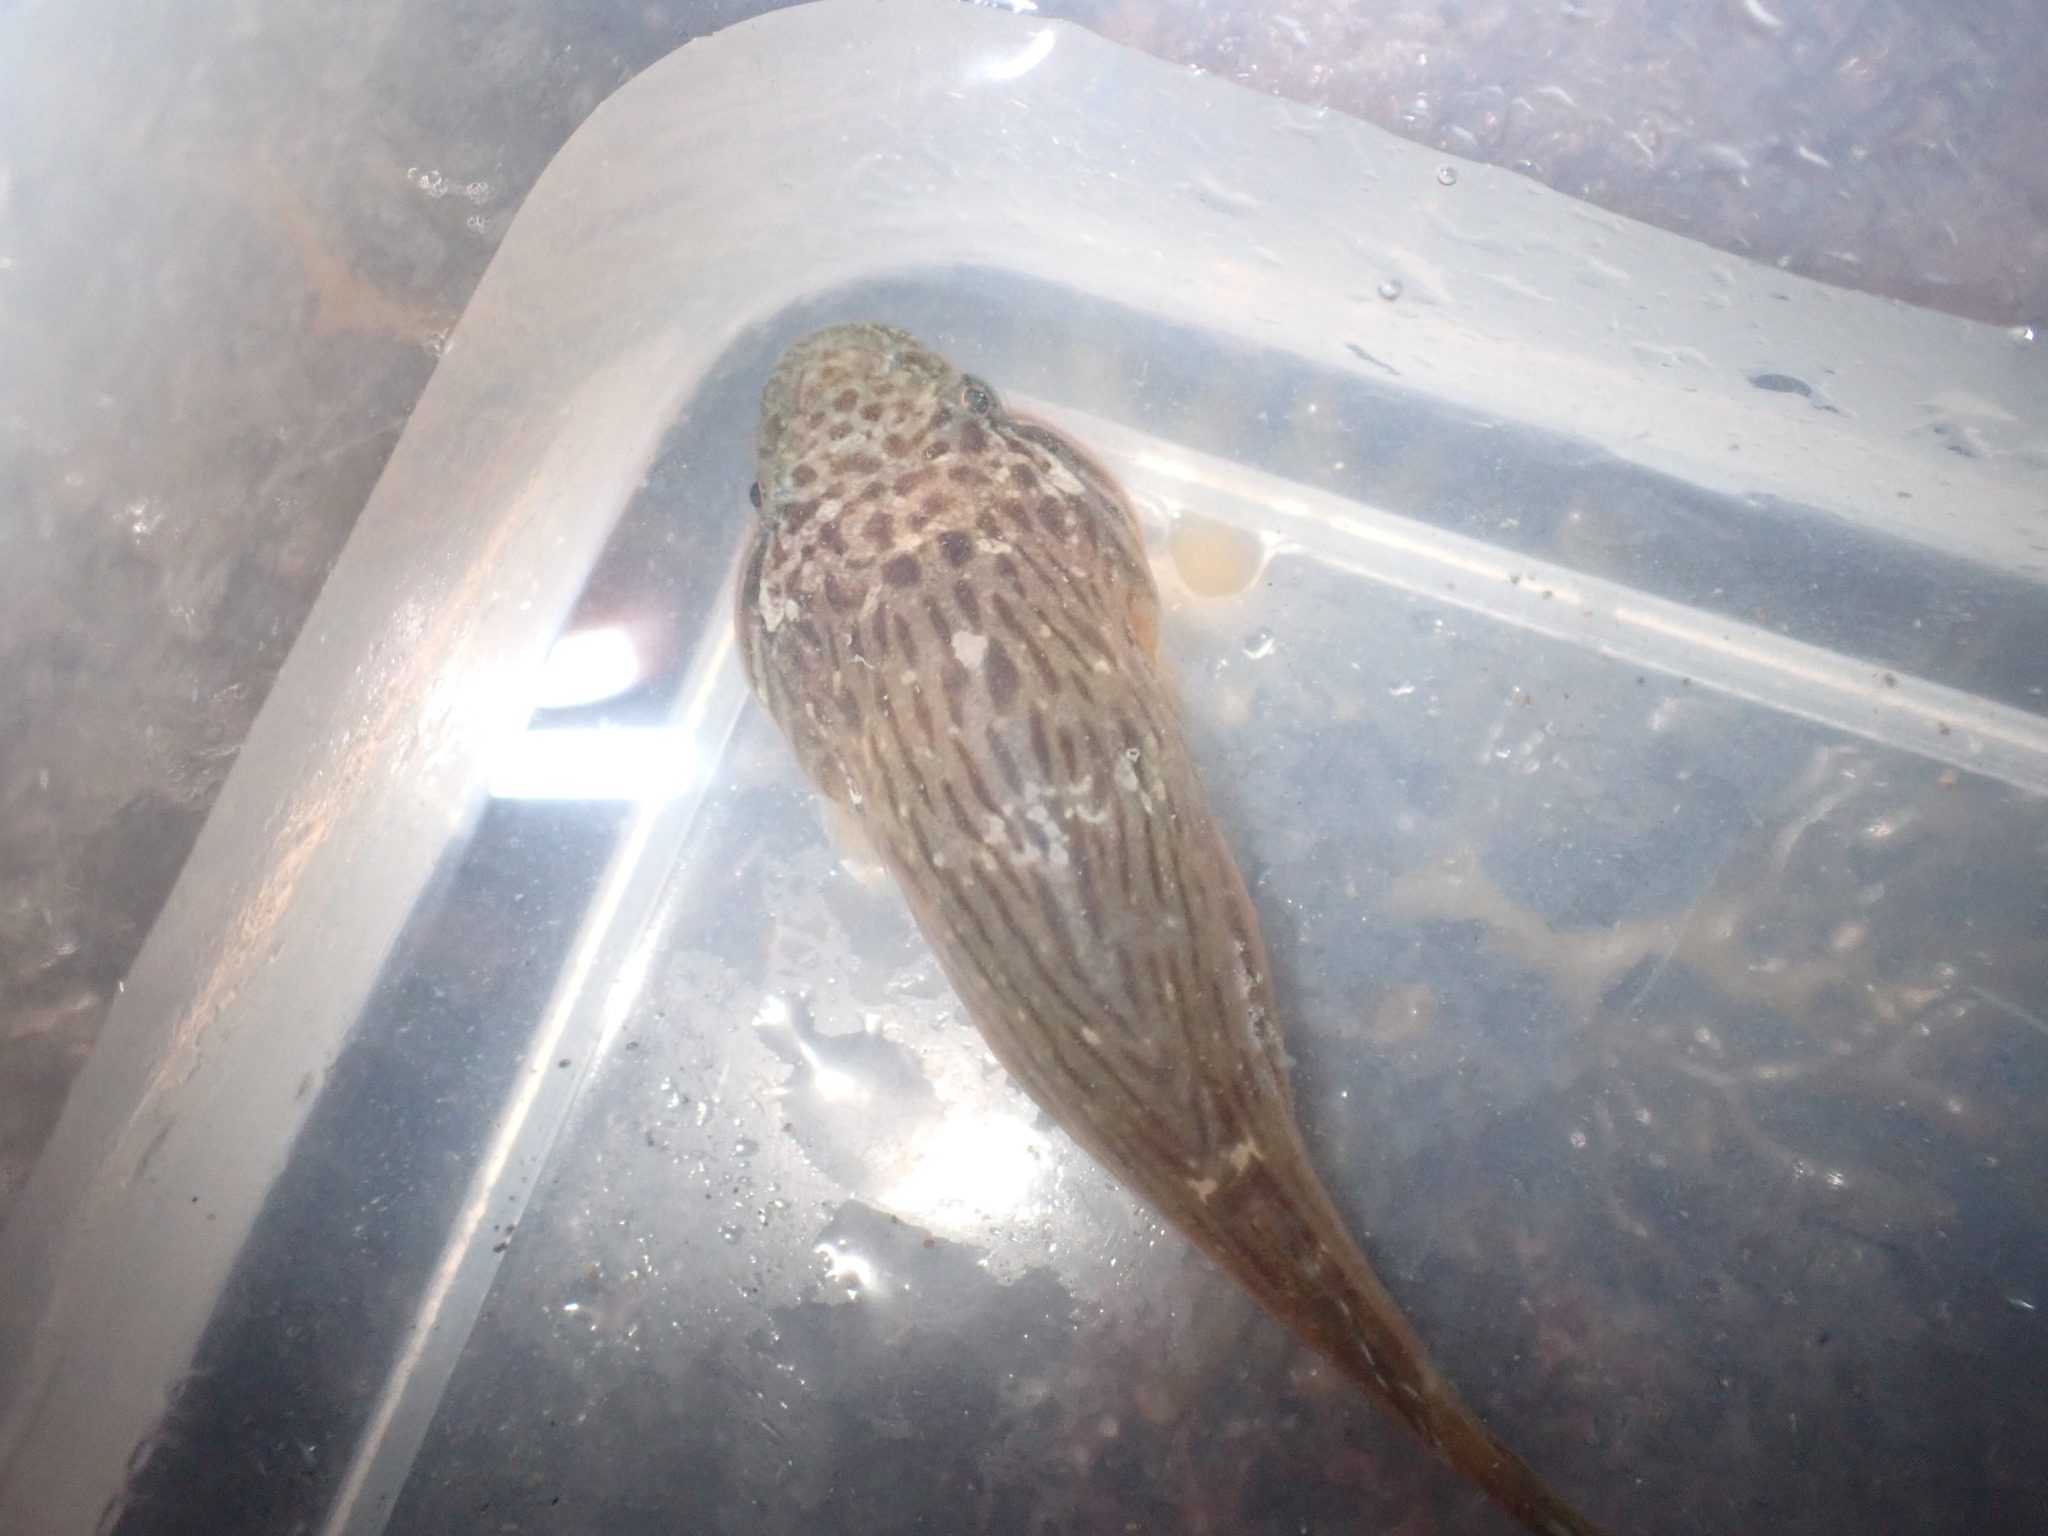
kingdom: Animalia
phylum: Chordata
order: Gobiesociformes
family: Gobiesocidae
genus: Trachelochismus
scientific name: Trachelochismus pinnulatus
